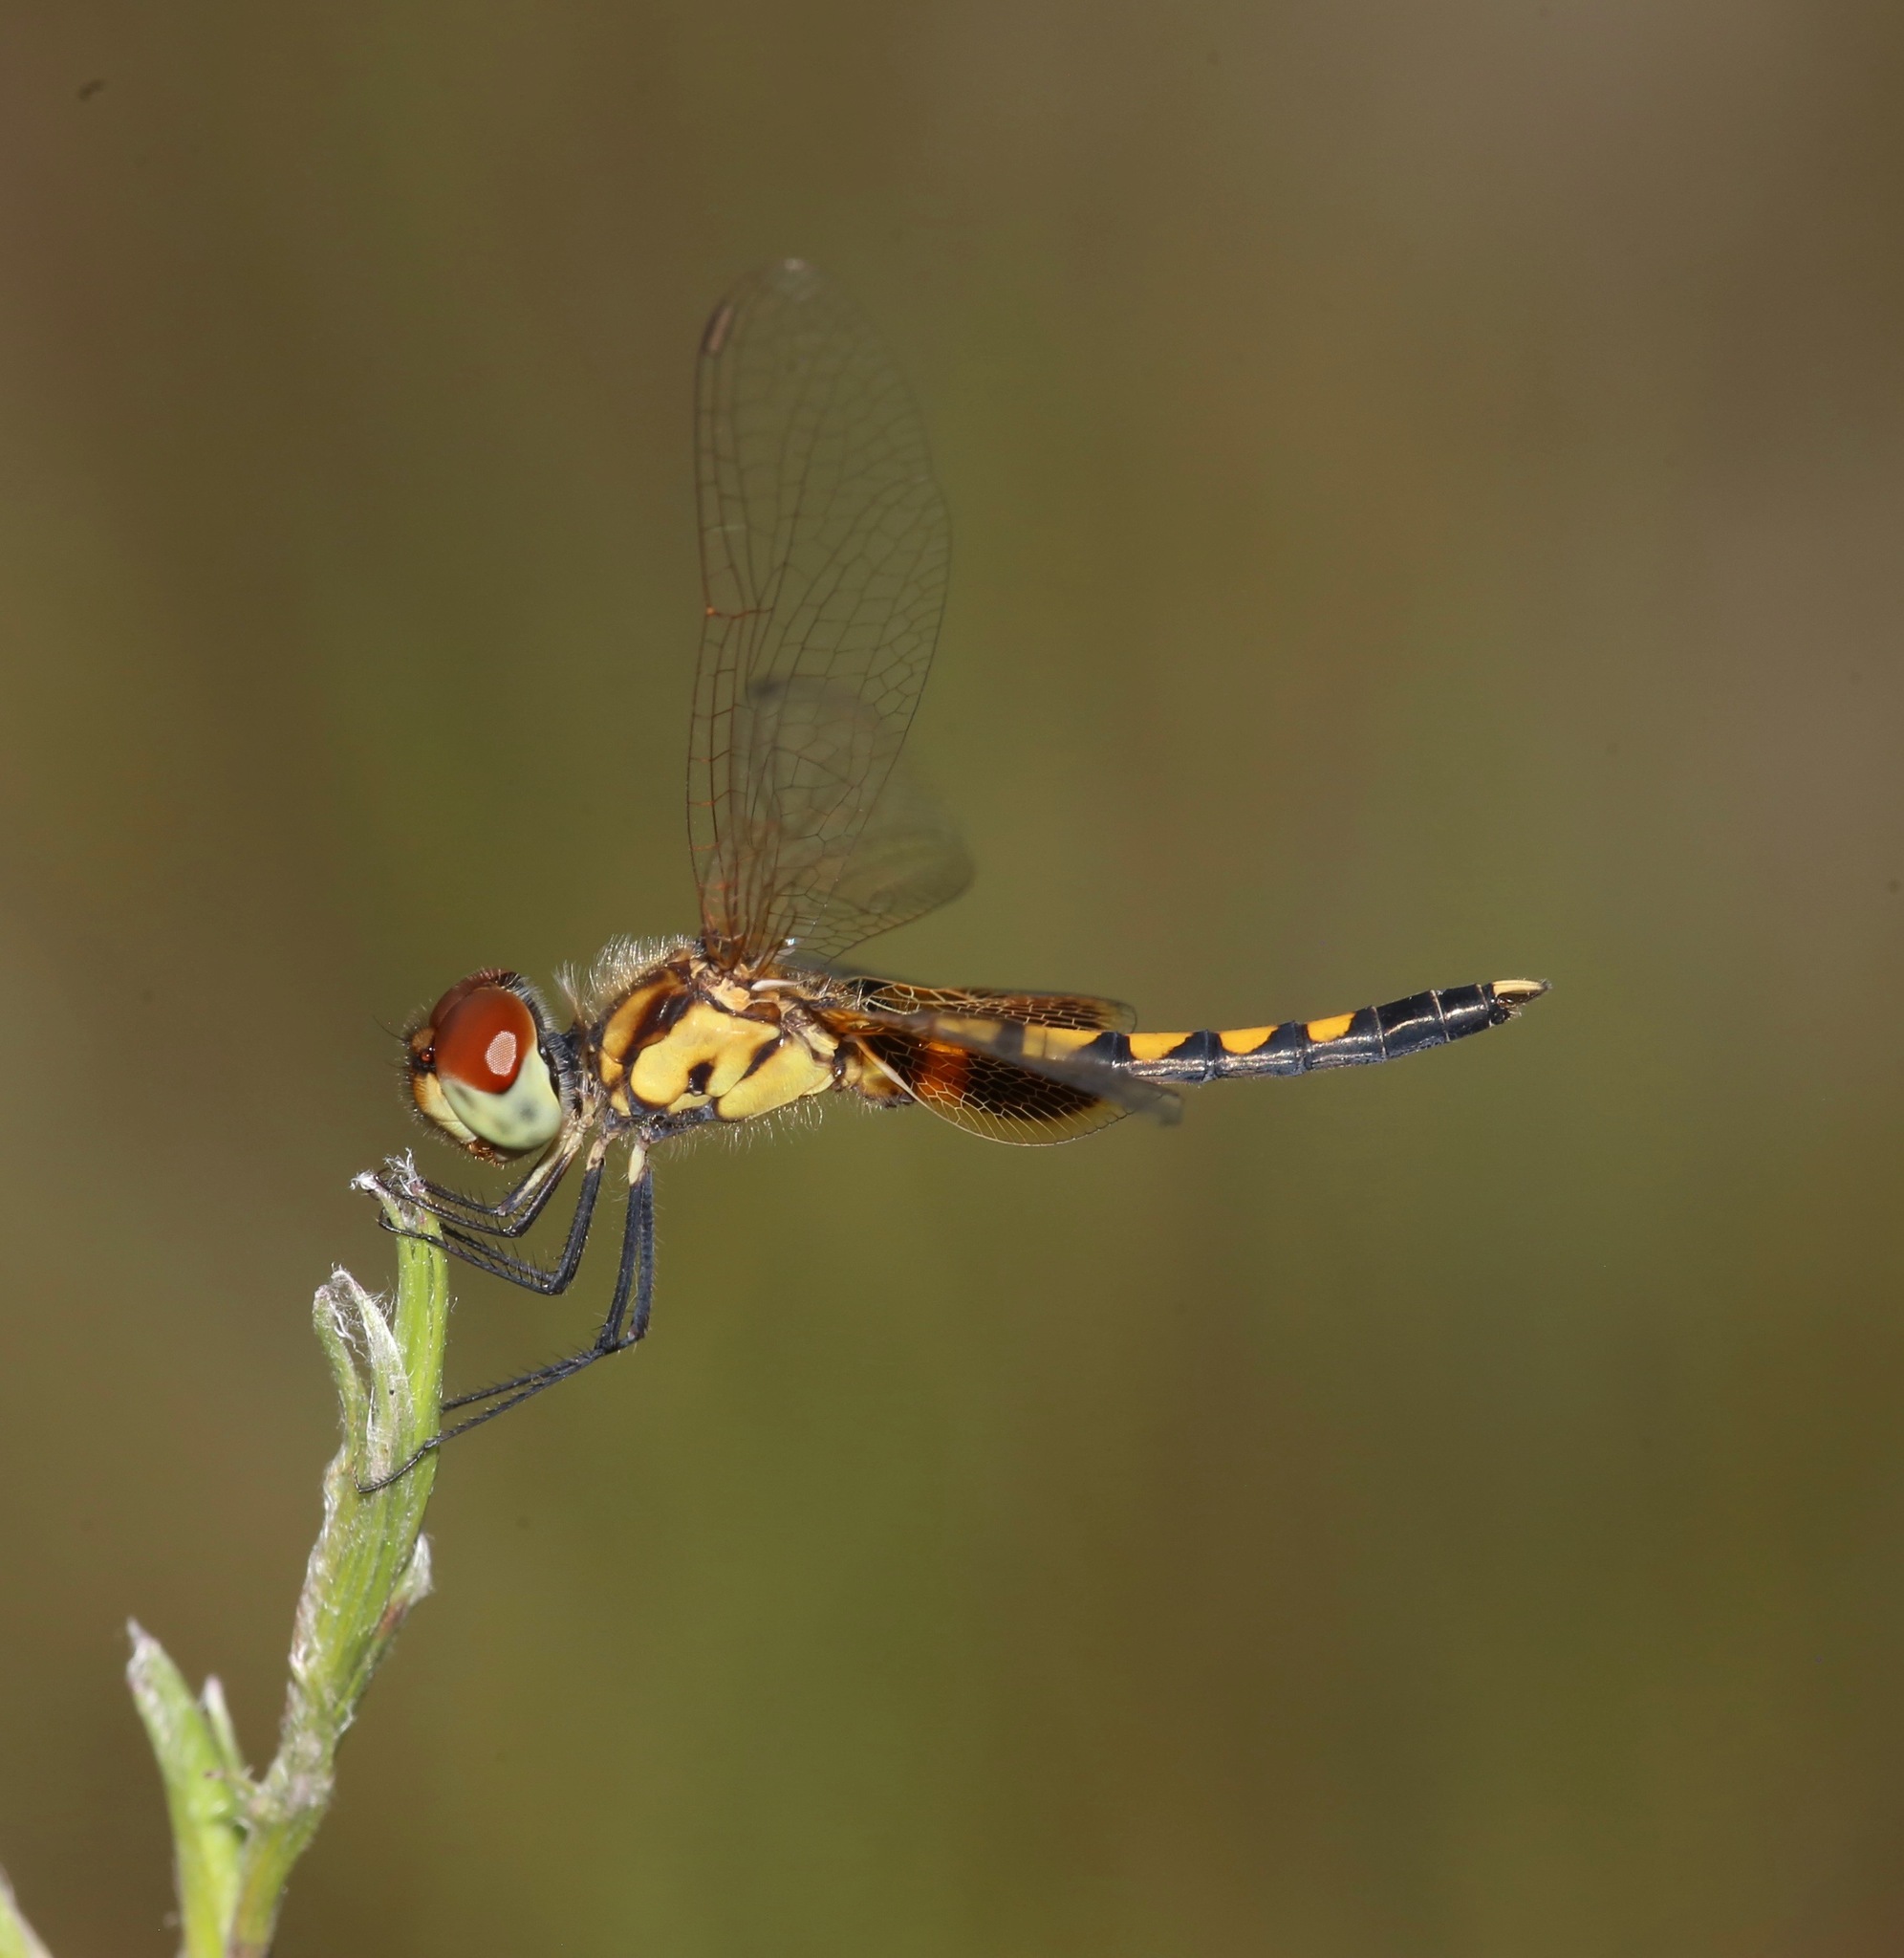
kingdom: Animalia
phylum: Arthropoda
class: Insecta
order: Odonata
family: Libellulidae
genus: Celithemis
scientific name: Celithemis amanda
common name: Amanda's pennant
